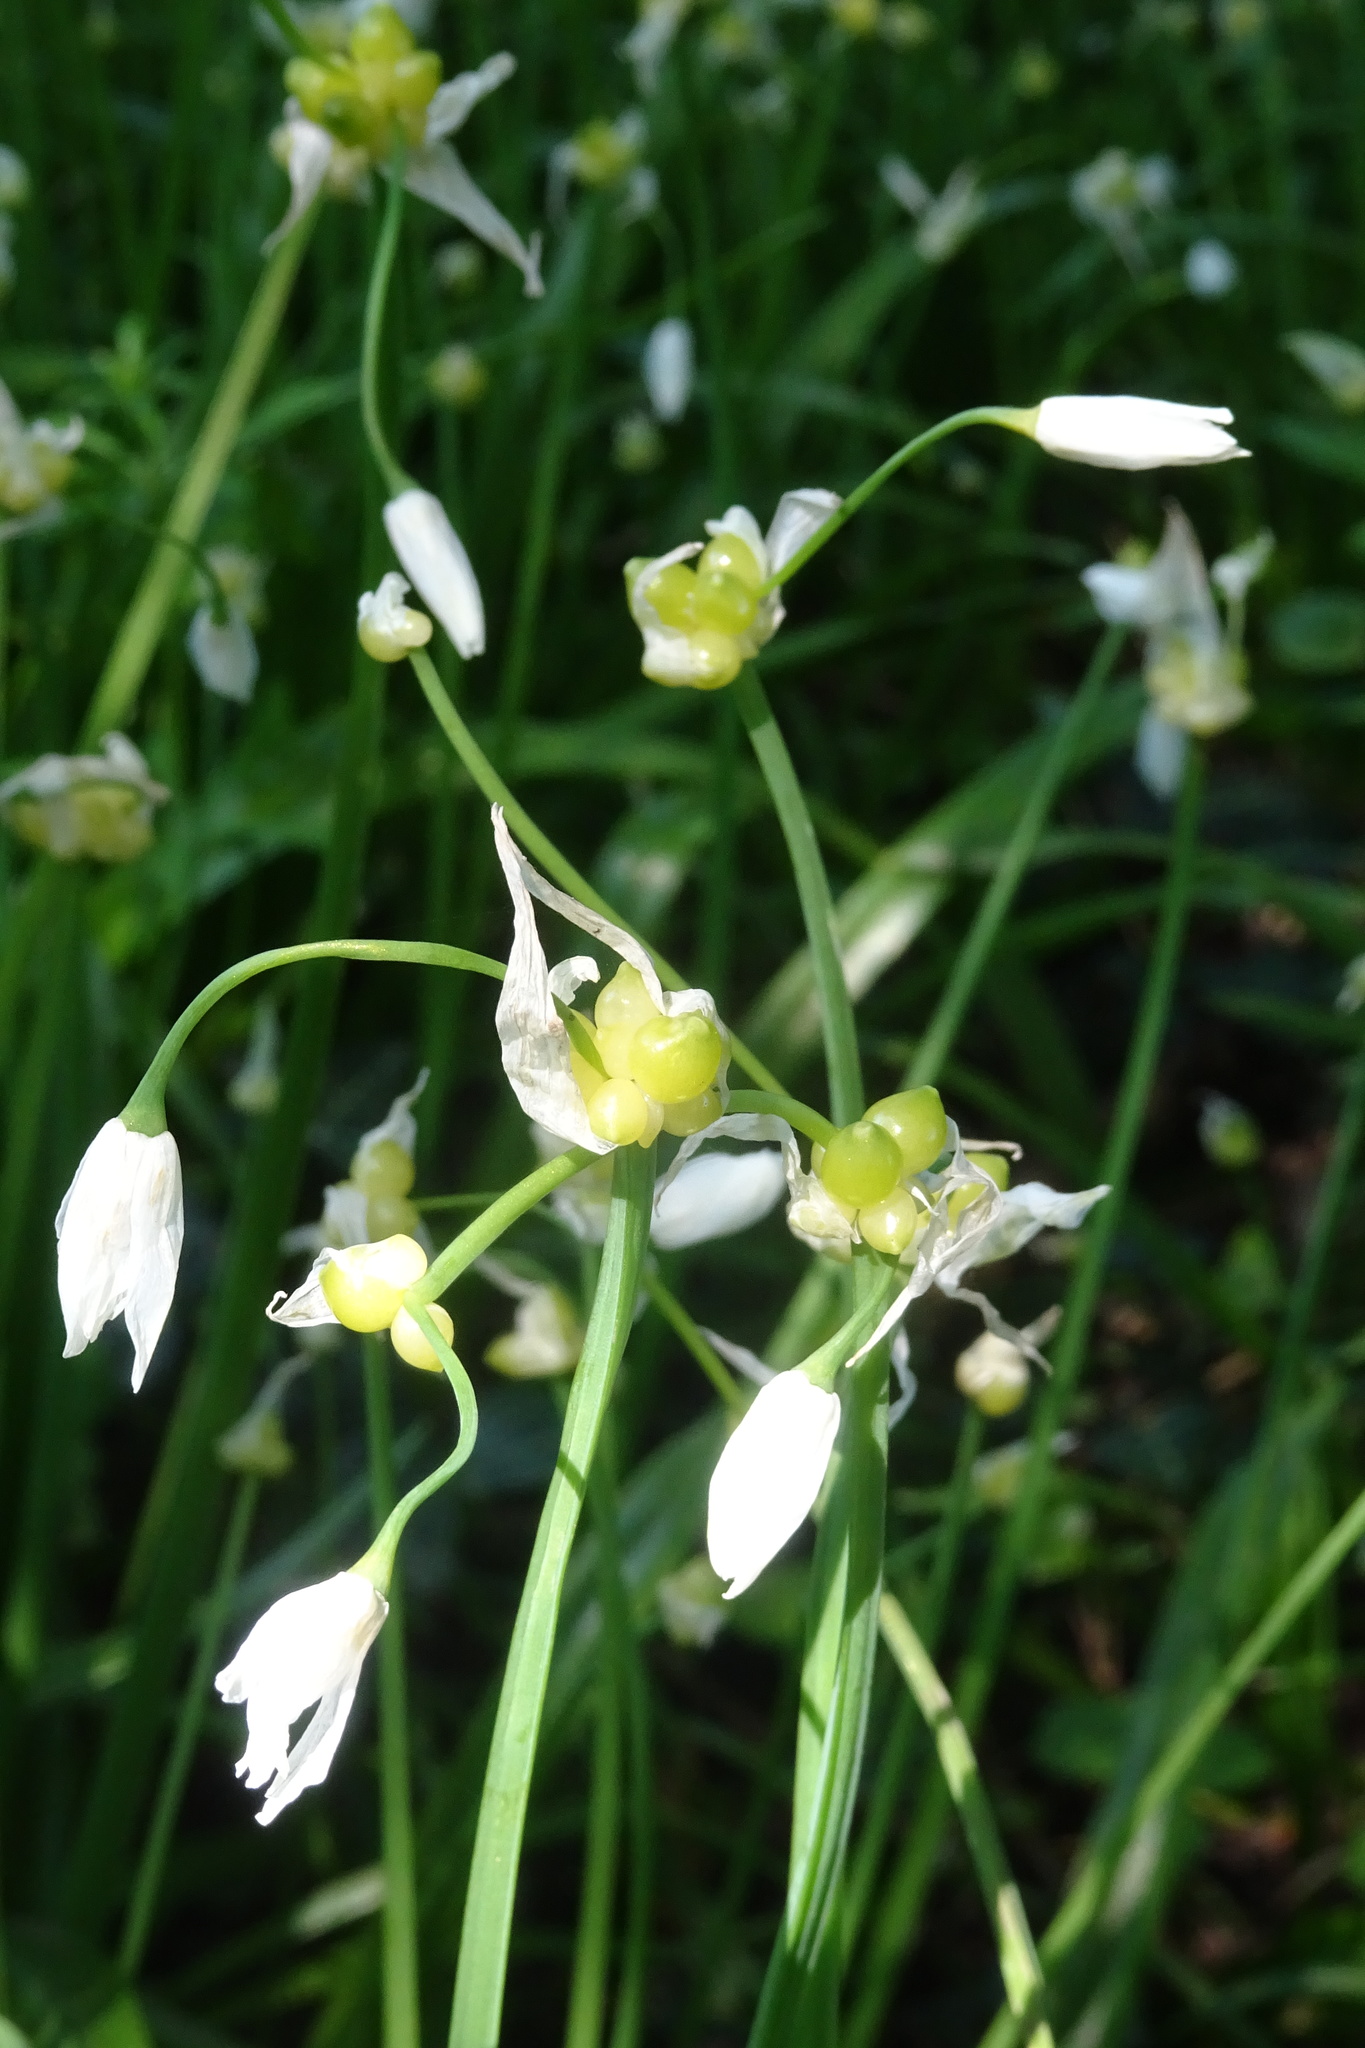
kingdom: Plantae
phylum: Tracheophyta
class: Liliopsida
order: Asparagales
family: Amaryllidaceae
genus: Allium
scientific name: Allium paradoxum
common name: Few-flowered garlic
